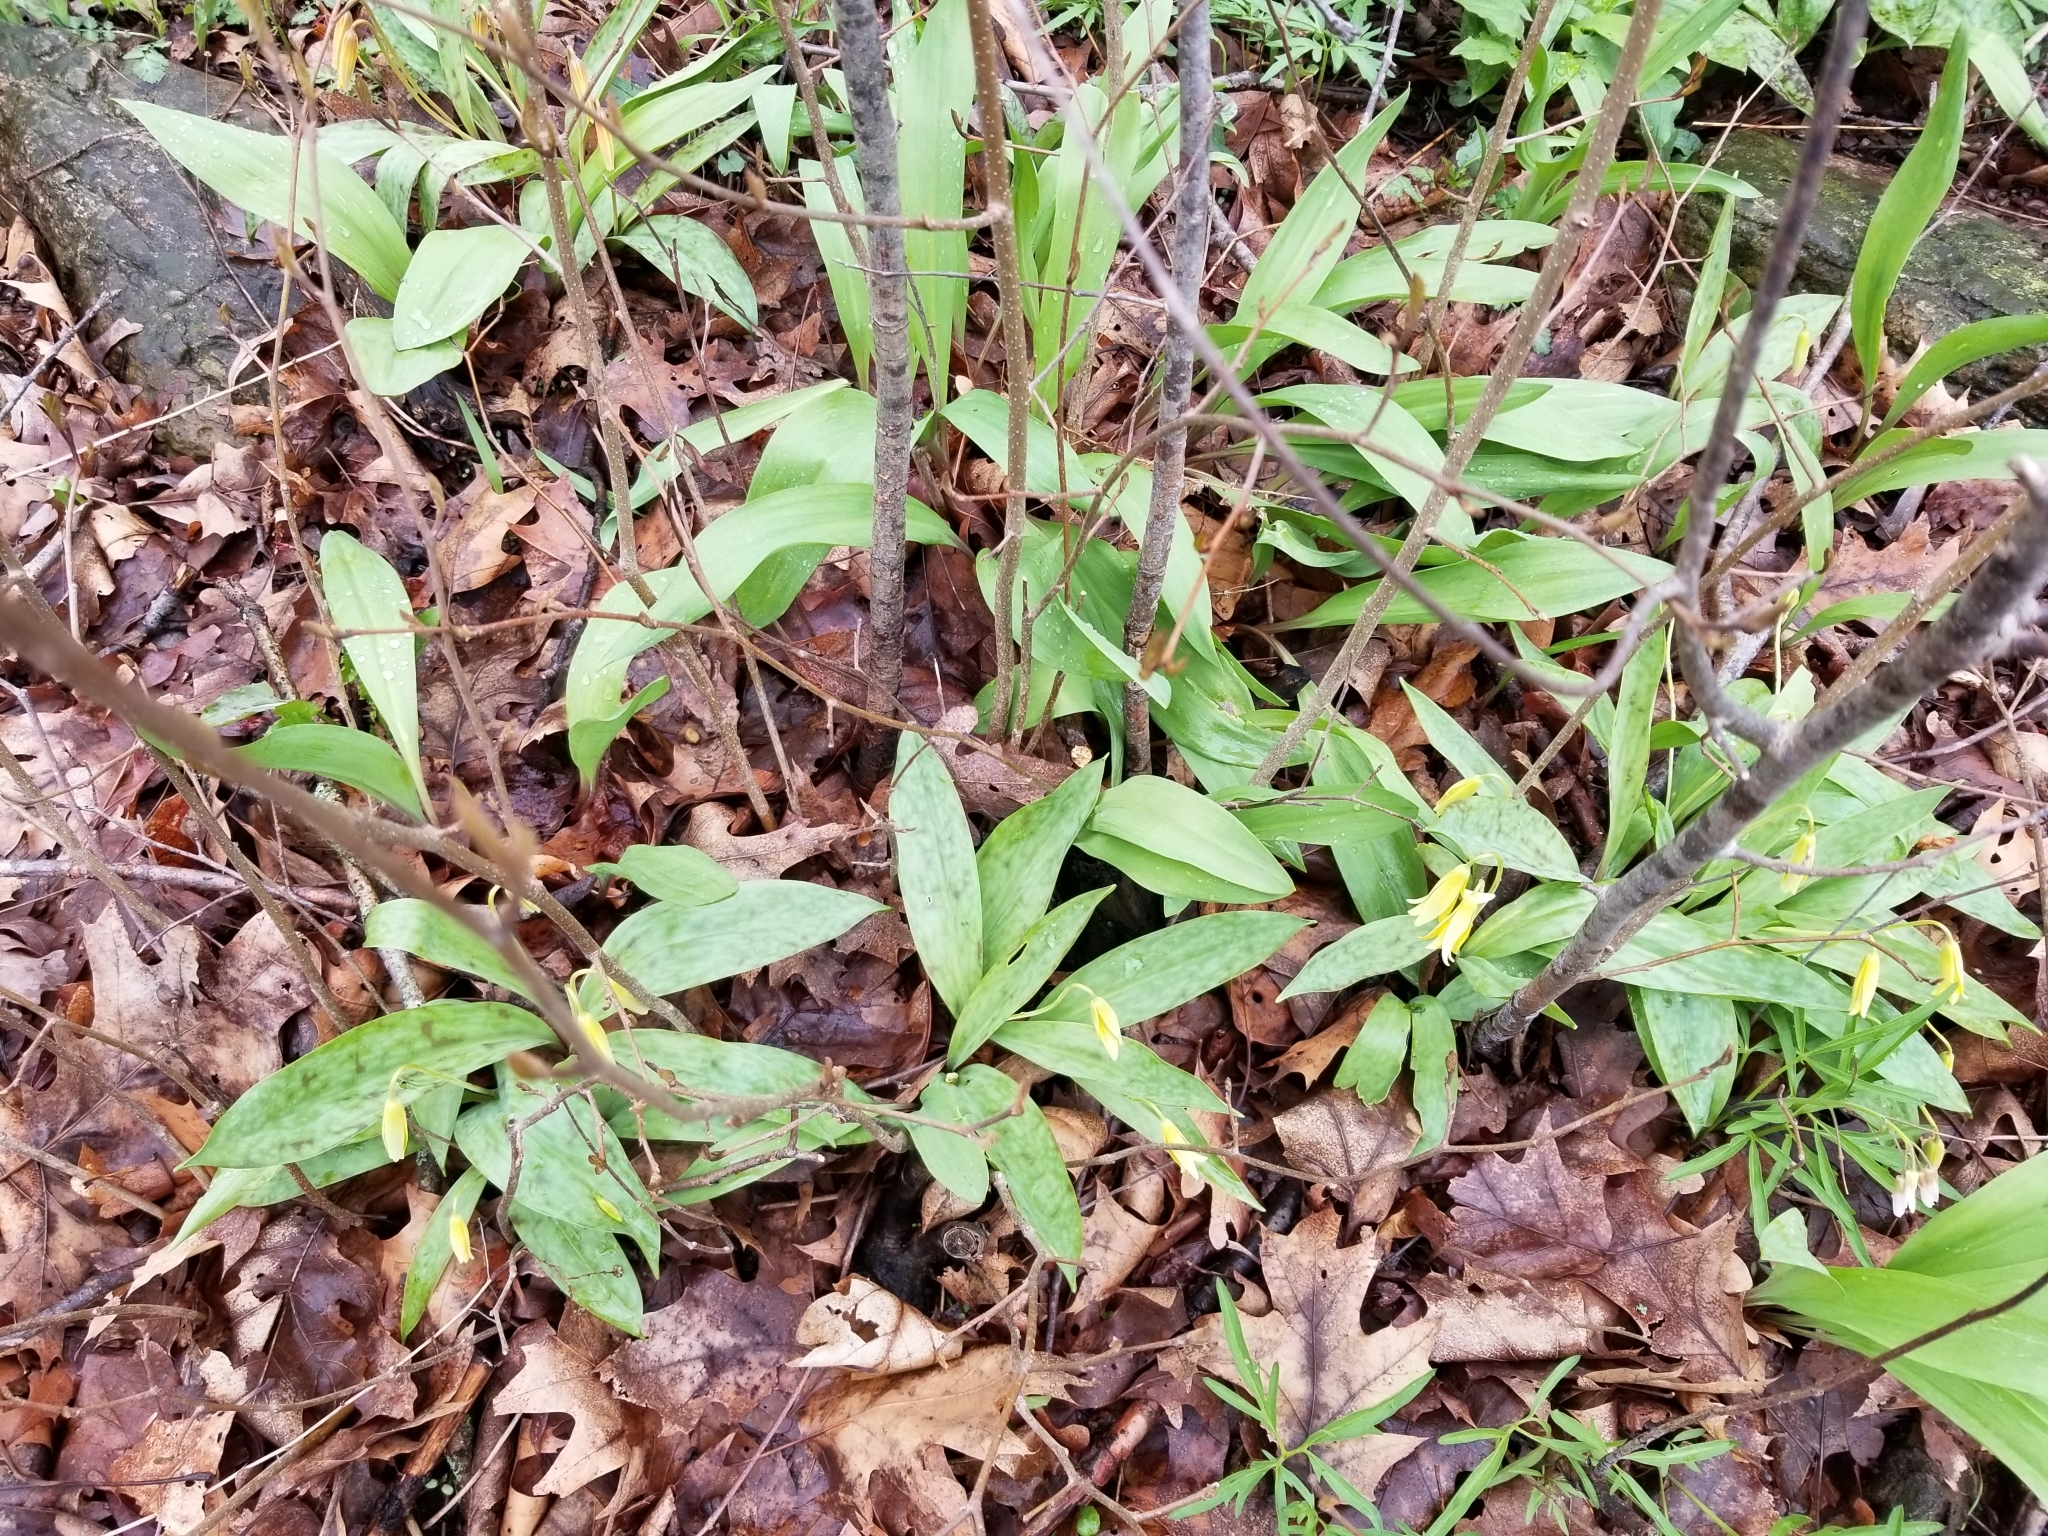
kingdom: Plantae
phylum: Tracheophyta
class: Liliopsida
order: Liliales
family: Liliaceae
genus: Erythronium
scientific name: Erythronium americanum
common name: Yellow adder's-tongue
